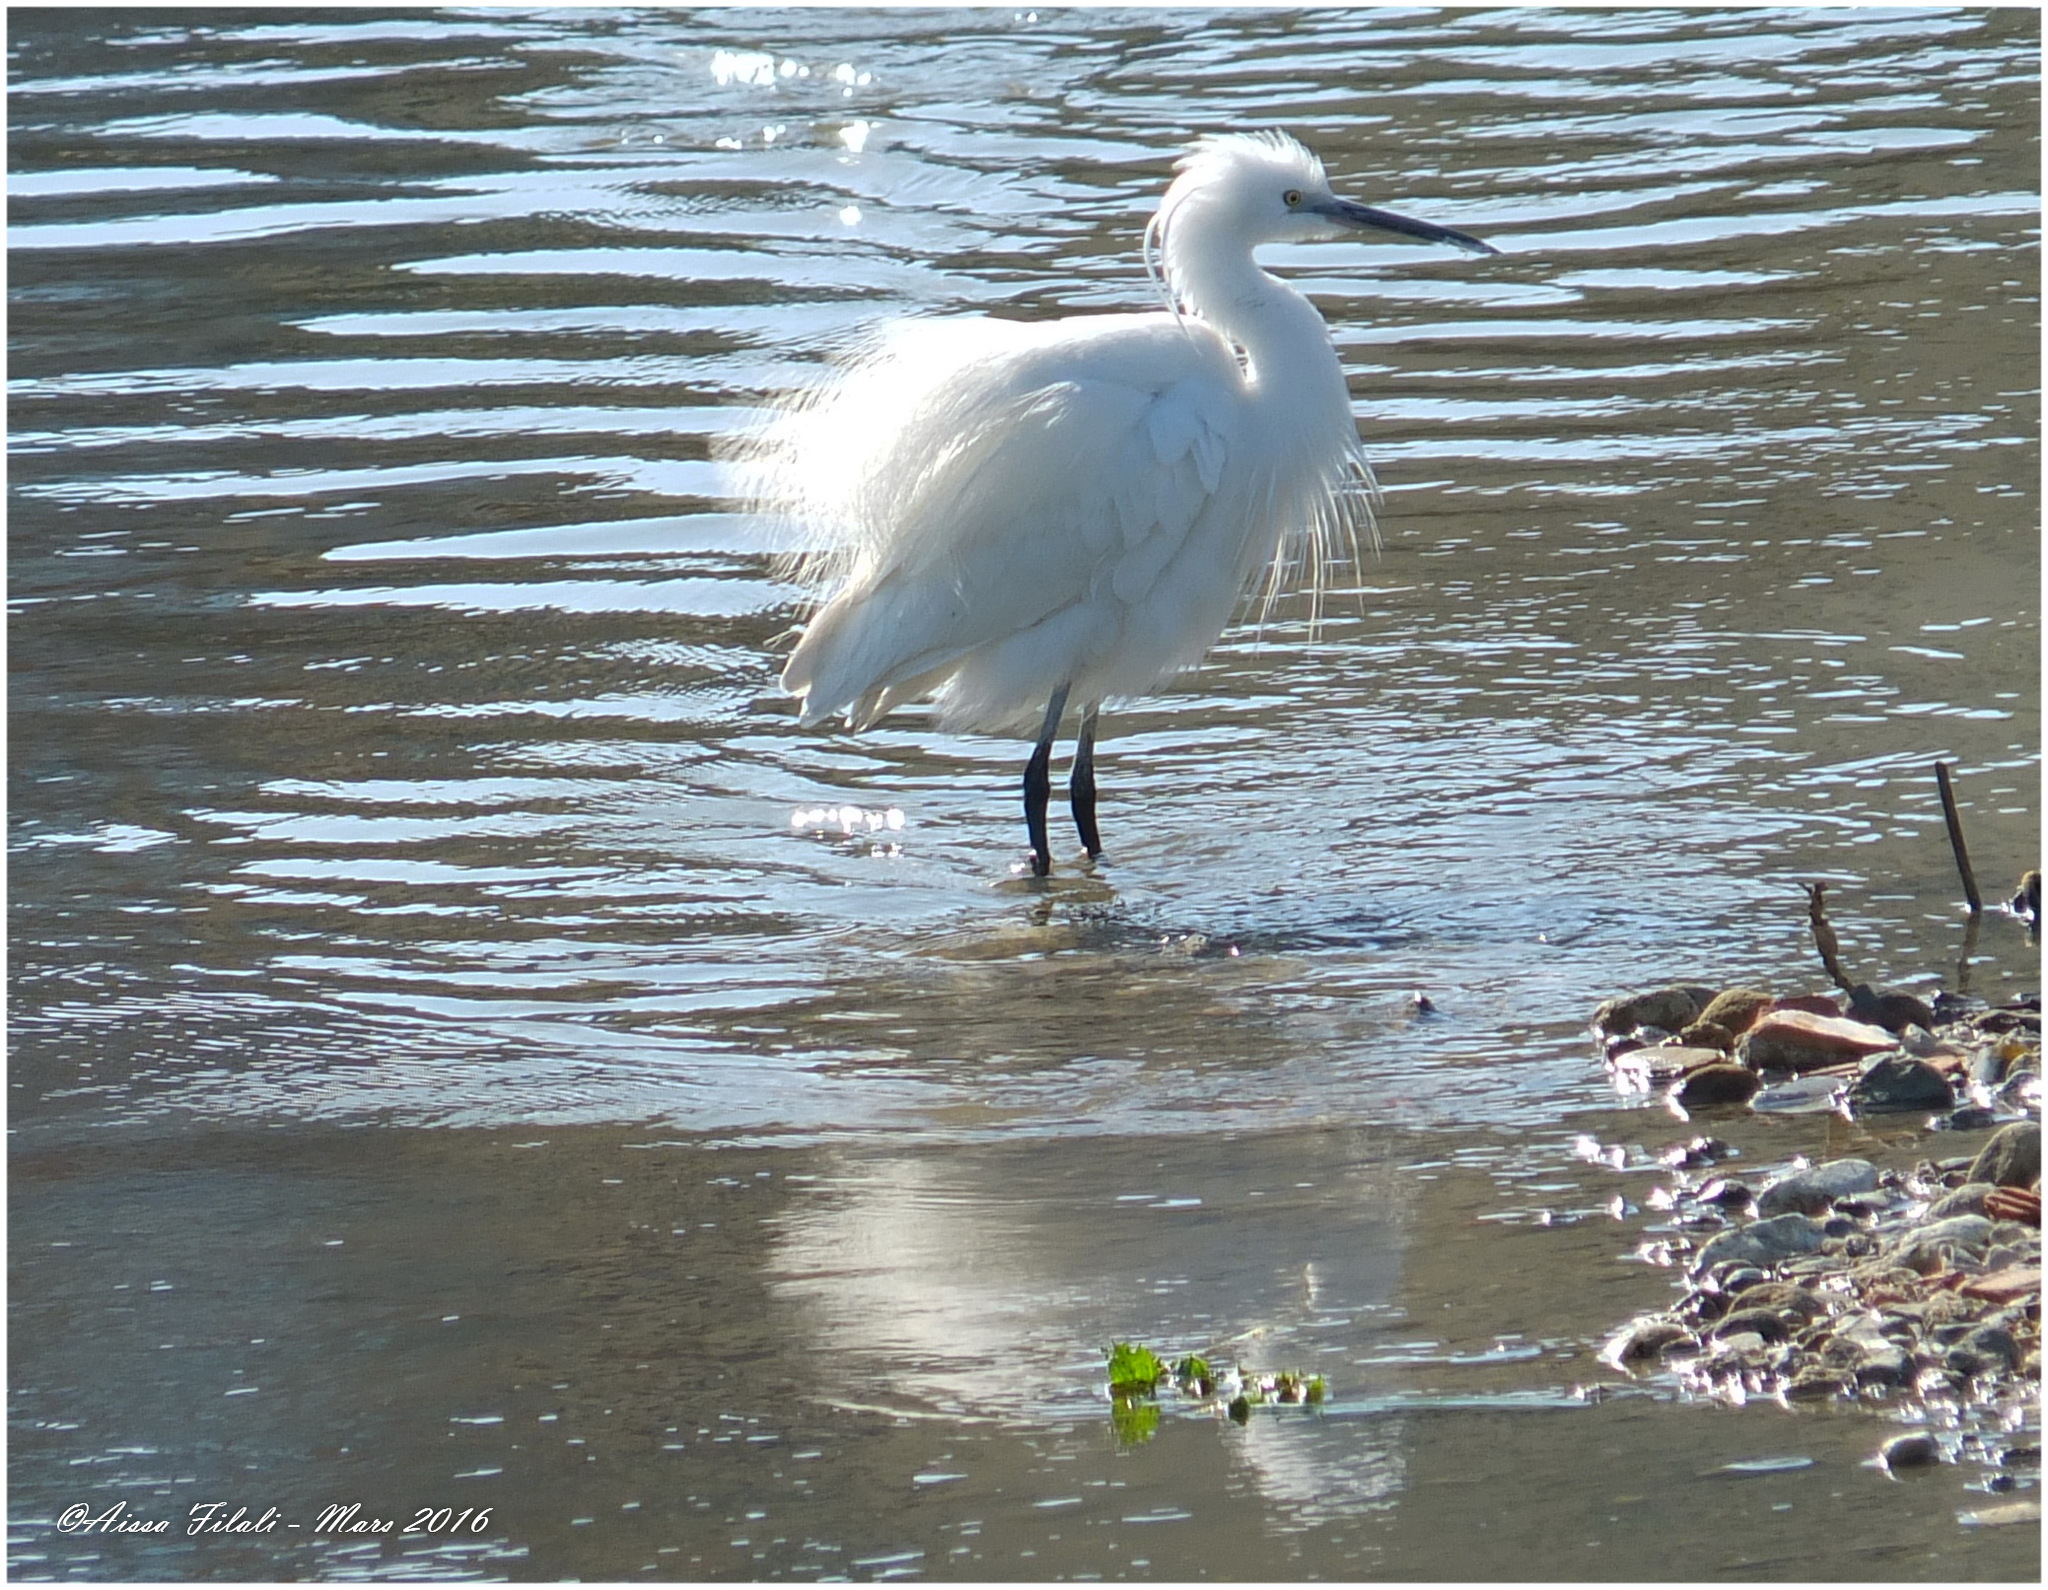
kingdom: Animalia
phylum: Chordata
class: Aves
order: Pelecaniformes
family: Ardeidae
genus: Egretta
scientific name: Egretta garzetta
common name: Little egret
